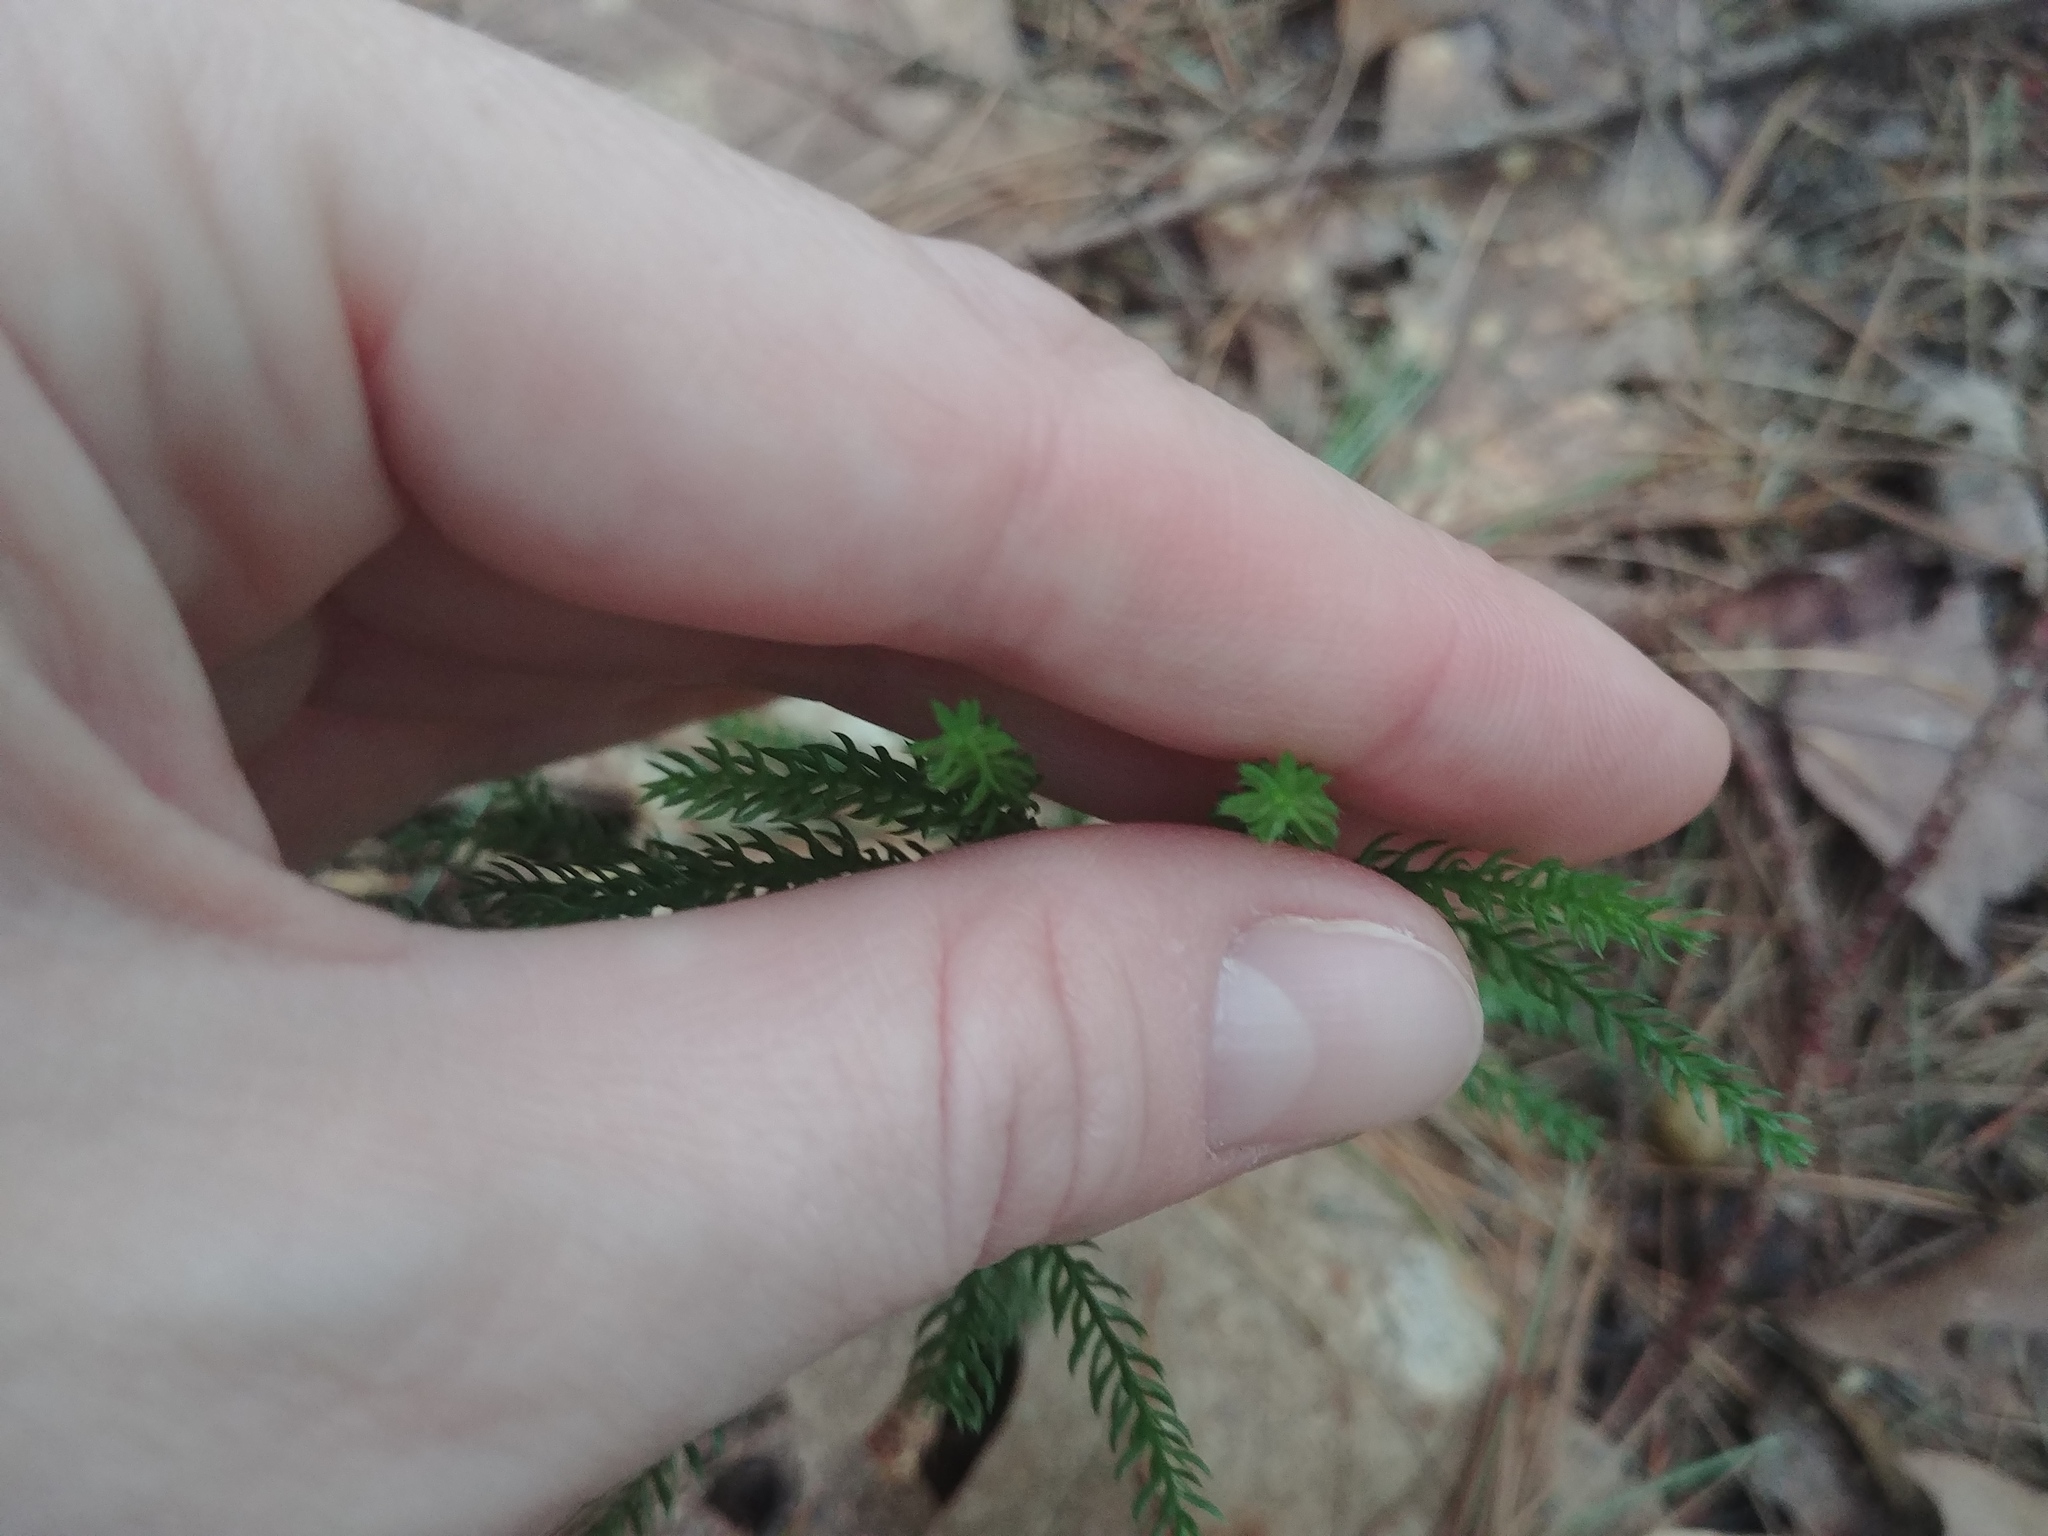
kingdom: Plantae
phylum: Tracheophyta
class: Lycopodiopsida
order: Lycopodiales
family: Lycopodiaceae
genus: Dendrolycopodium
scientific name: Dendrolycopodium dendroideum
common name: Northern tree-clubmoss
